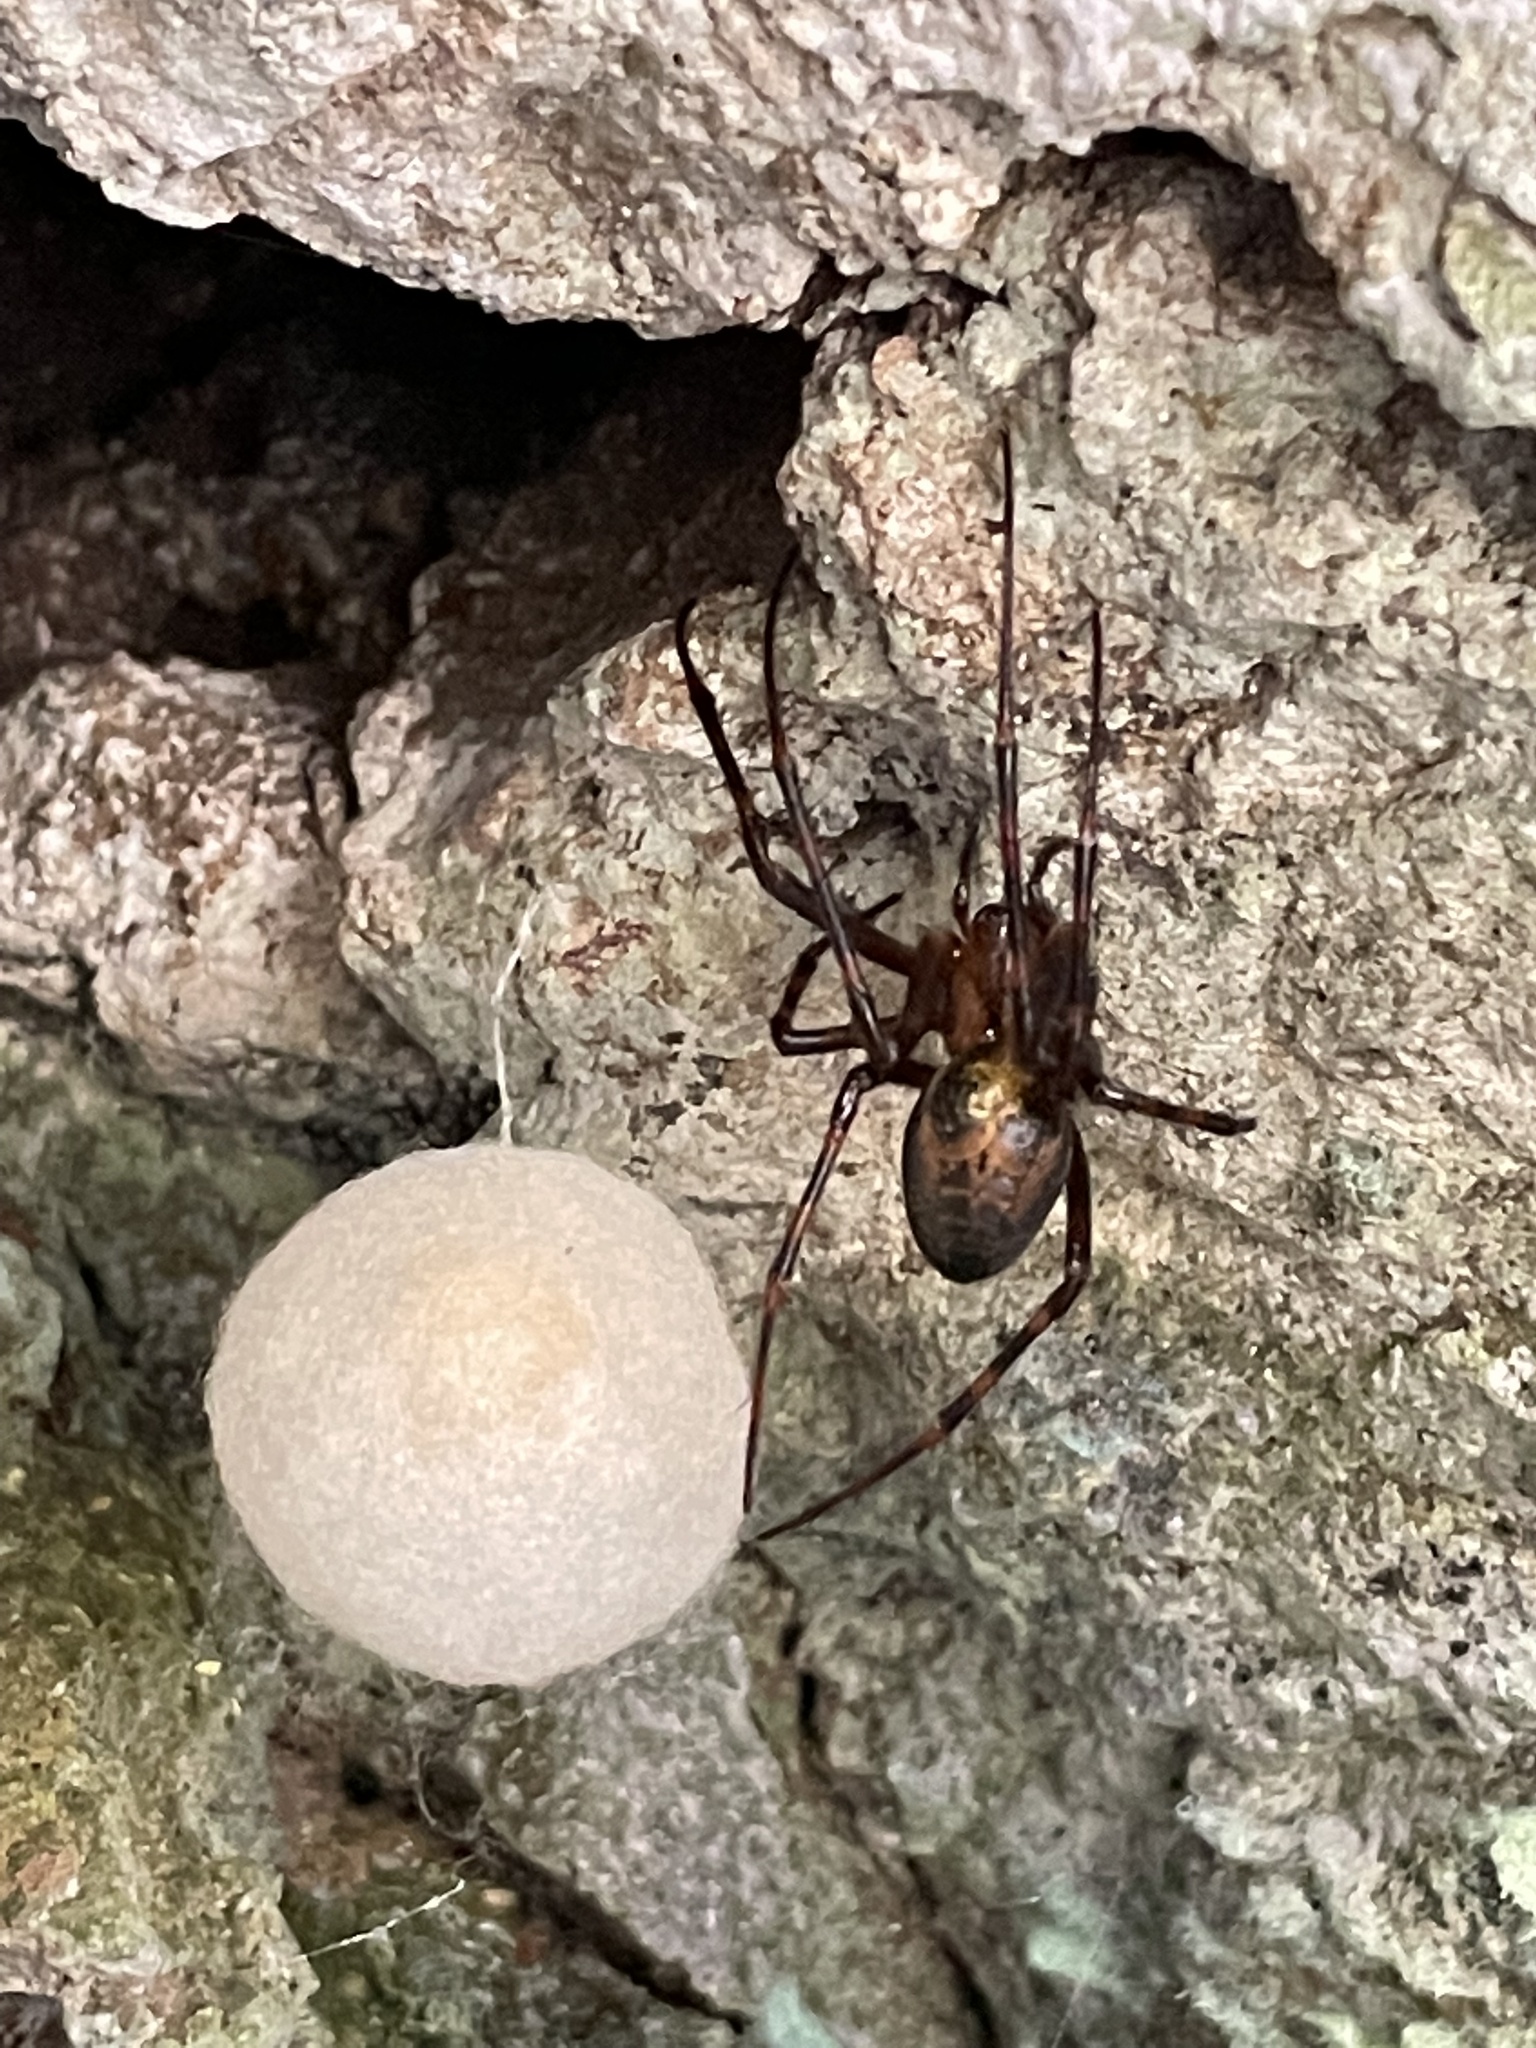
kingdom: Animalia
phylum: Arthropoda
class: Arachnida
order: Araneae
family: Tetragnathidae
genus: Meta
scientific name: Meta menardi
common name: Cave spider
